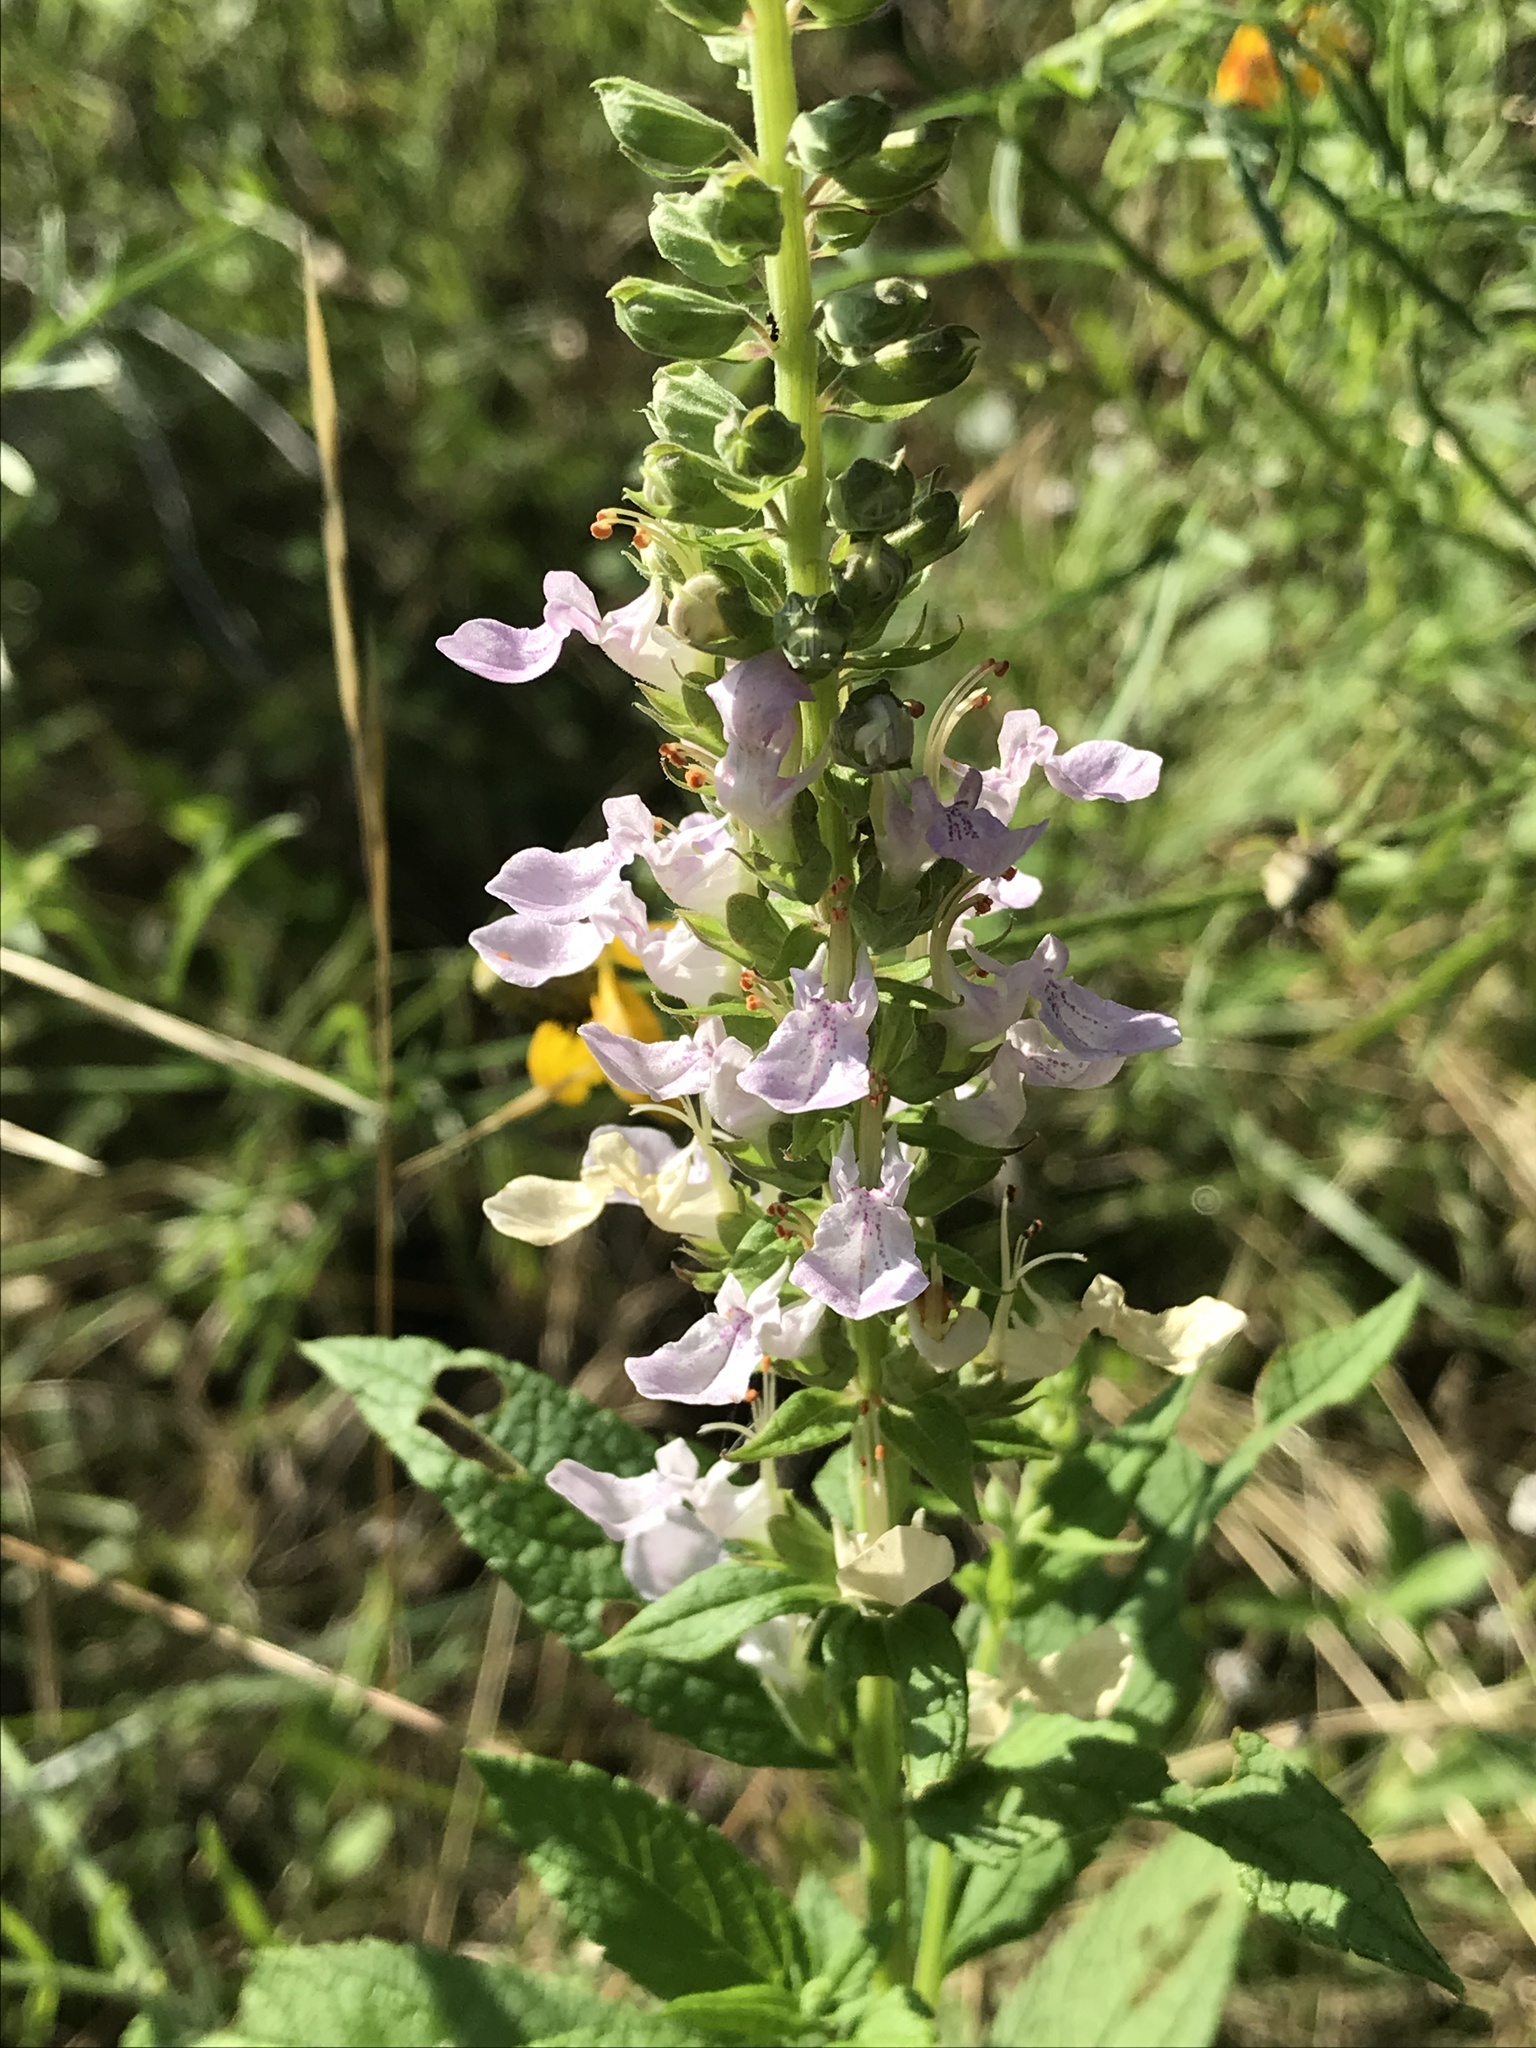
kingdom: Plantae
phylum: Tracheophyta
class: Magnoliopsida
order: Lamiales
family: Lamiaceae
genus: Teucrium
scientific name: Teucrium canadense
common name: American germander
